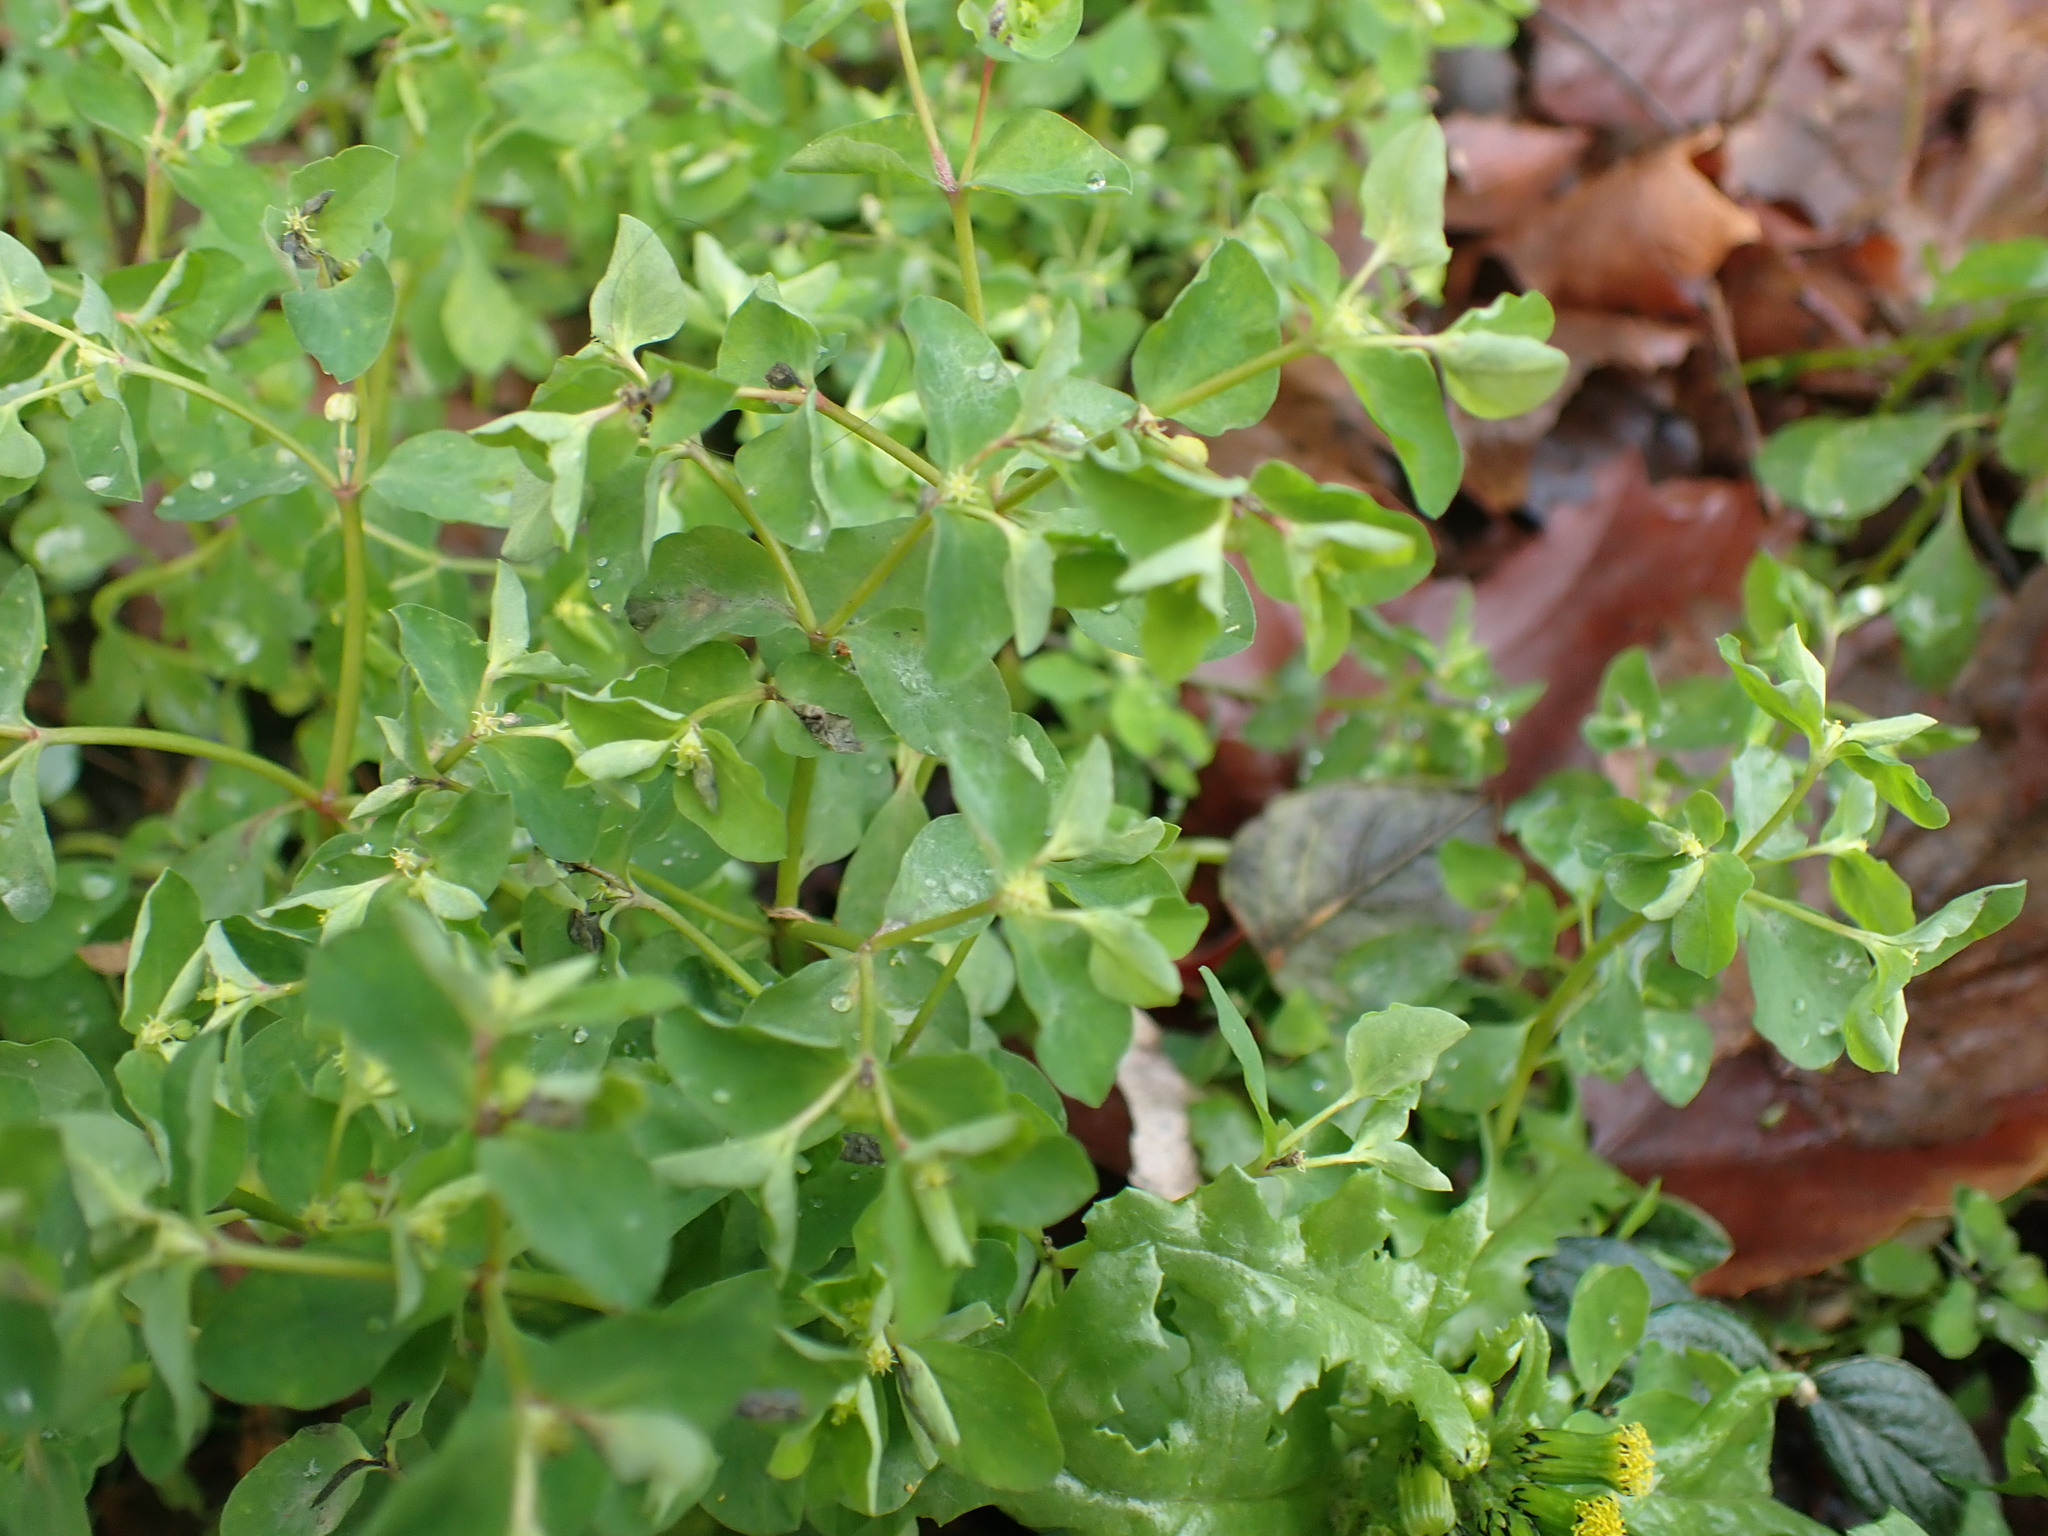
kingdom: Plantae
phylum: Tracheophyta
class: Magnoliopsida
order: Malpighiales
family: Euphorbiaceae
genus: Euphorbia
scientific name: Euphorbia peplus
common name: Petty spurge
